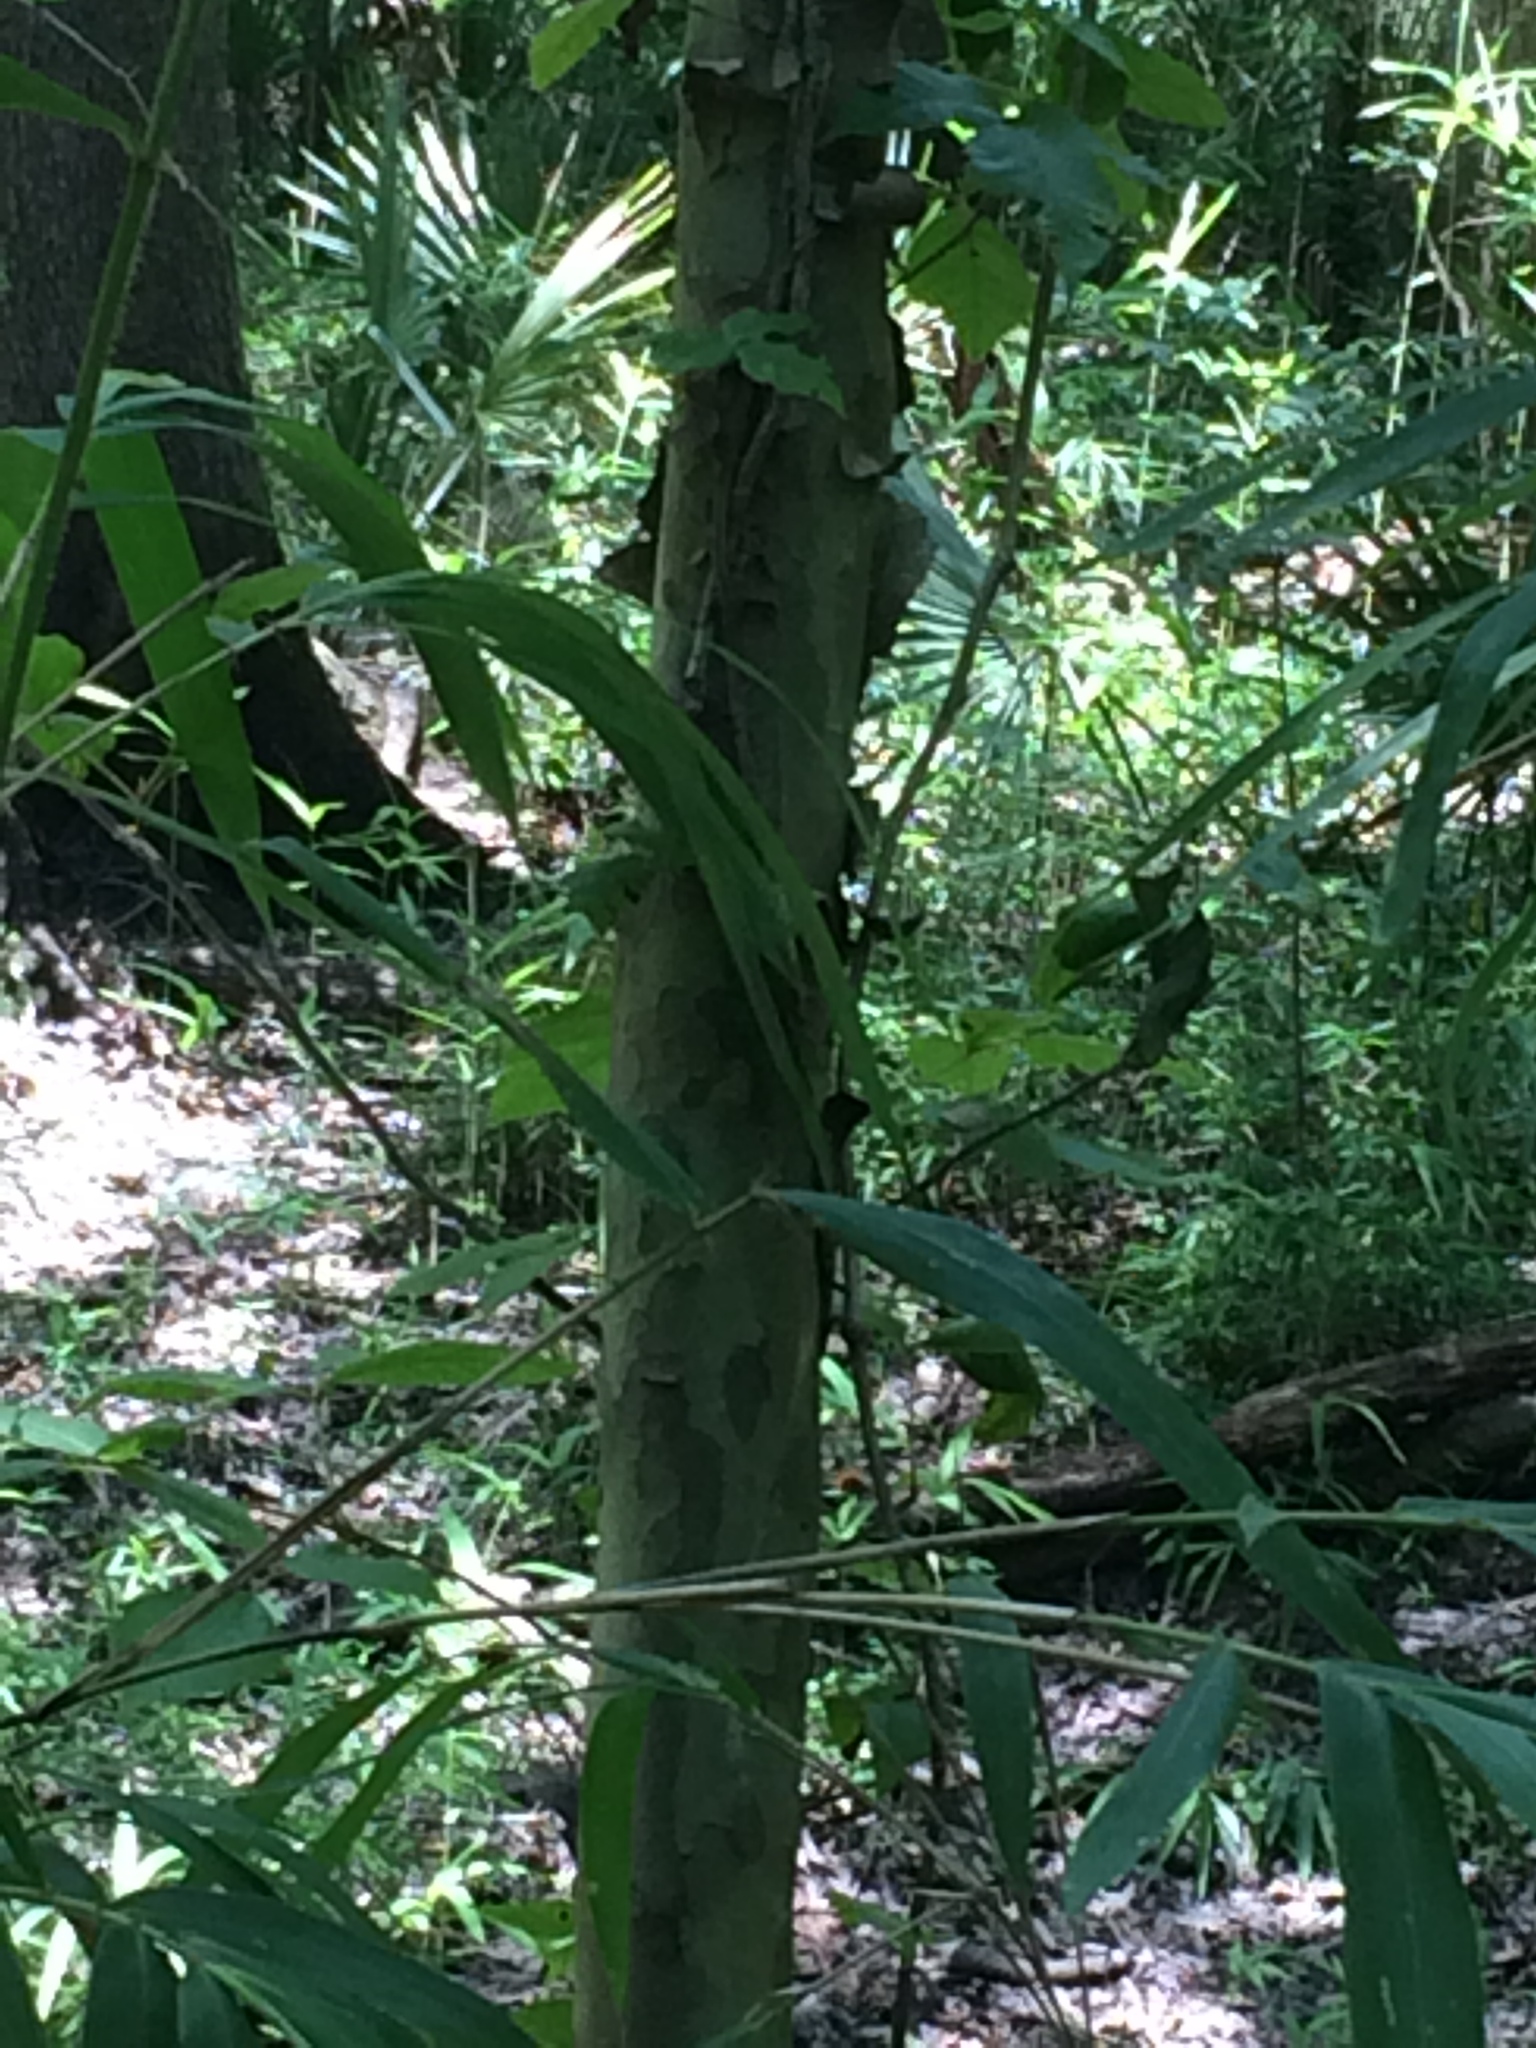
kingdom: Plantae
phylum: Tracheophyta
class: Magnoliopsida
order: Proteales
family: Platanaceae
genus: Platanus
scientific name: Platanus occidentalis
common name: American sycamore
